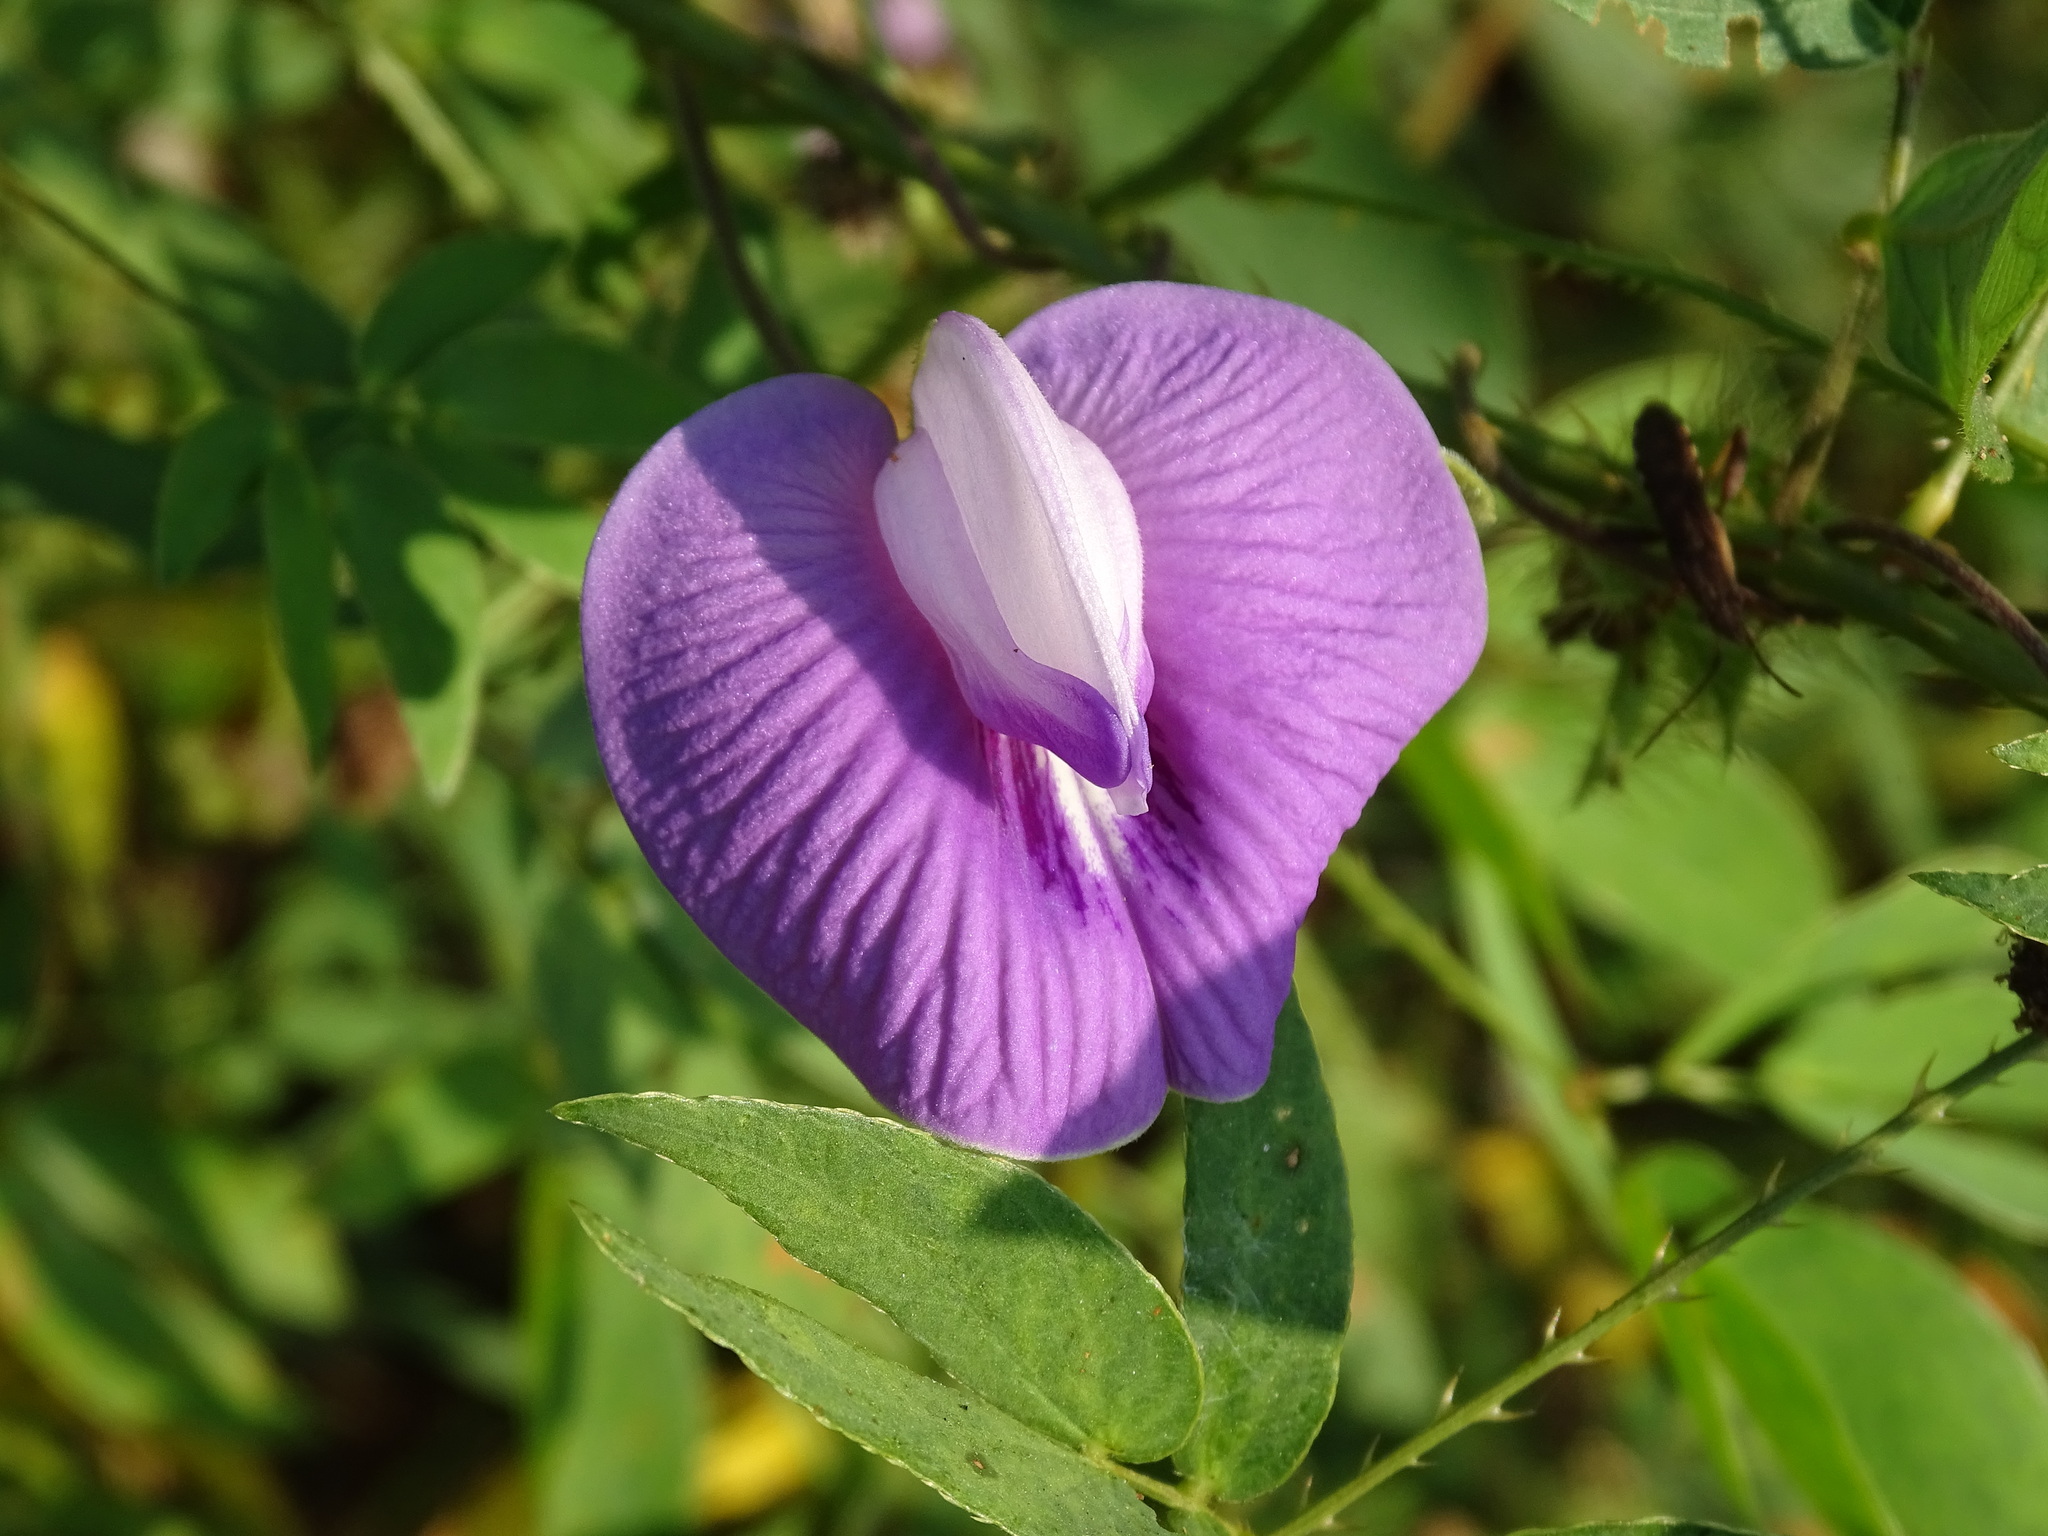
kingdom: Plantae
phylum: Tracheophyta
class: Magnoliopsida
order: Fabales
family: Fabaceae
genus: Centrosema
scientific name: Centrosema virginianum
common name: Butterfly-pea
